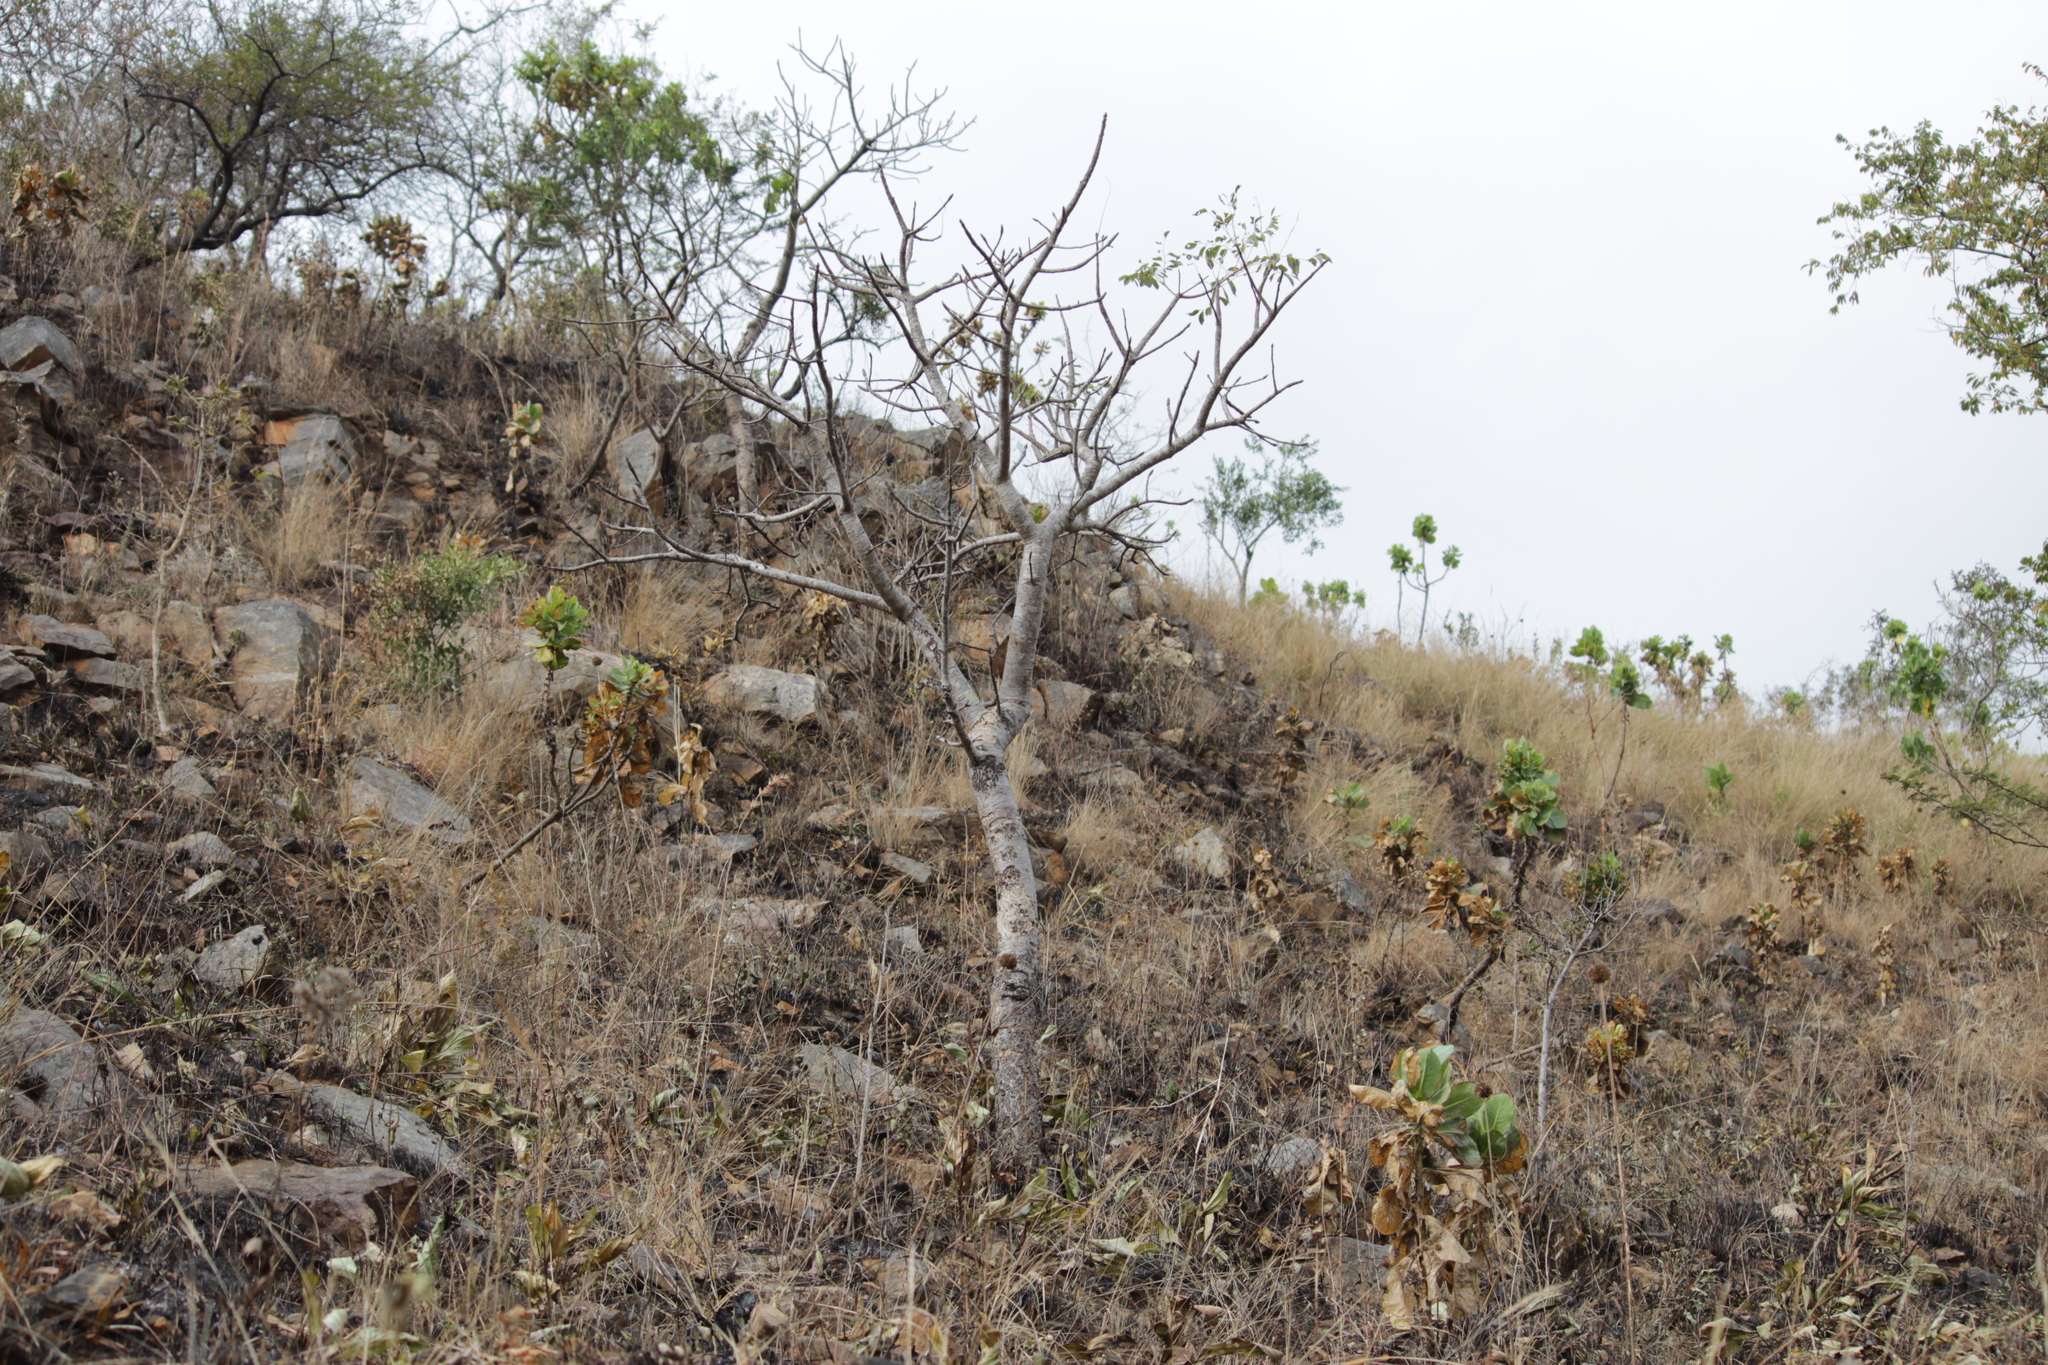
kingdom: Plantae
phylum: Tracheophyta
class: Magnoliopsida
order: Sapindales
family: Anacardiaceae
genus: Sclerocarya
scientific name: Sclerocarya birrea
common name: Marula
